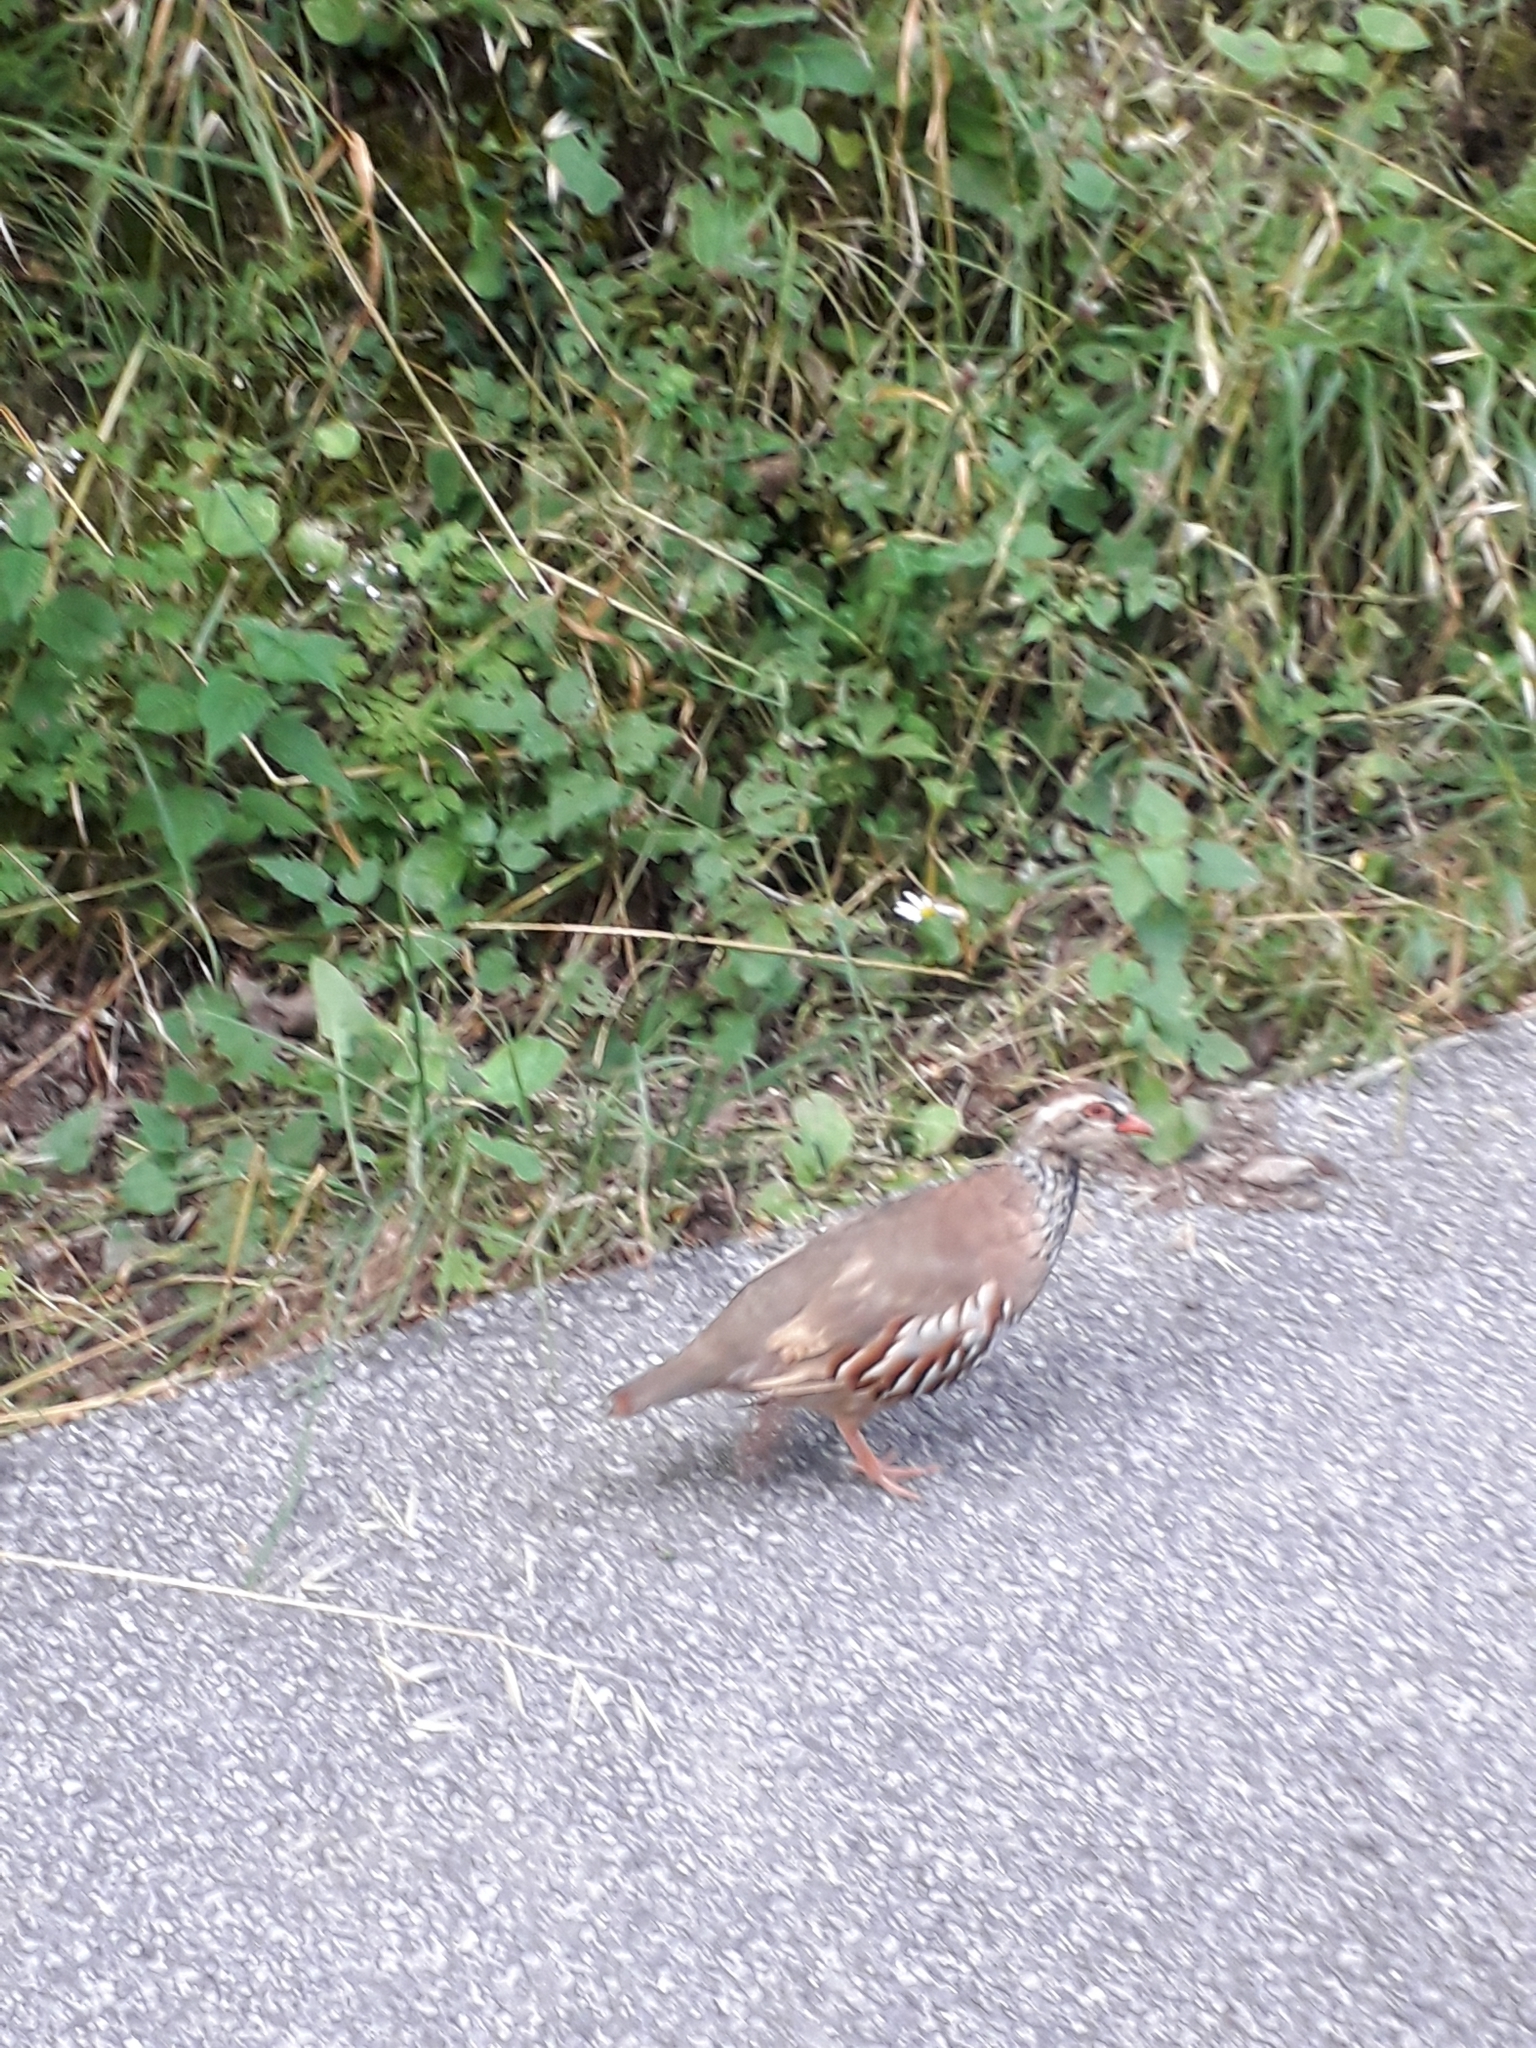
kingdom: Animalia
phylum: Chordata
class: Aves
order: Galliformes
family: Phasianidae
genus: Alectoris
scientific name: Alectoris rufa
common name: Red-legged partridge
